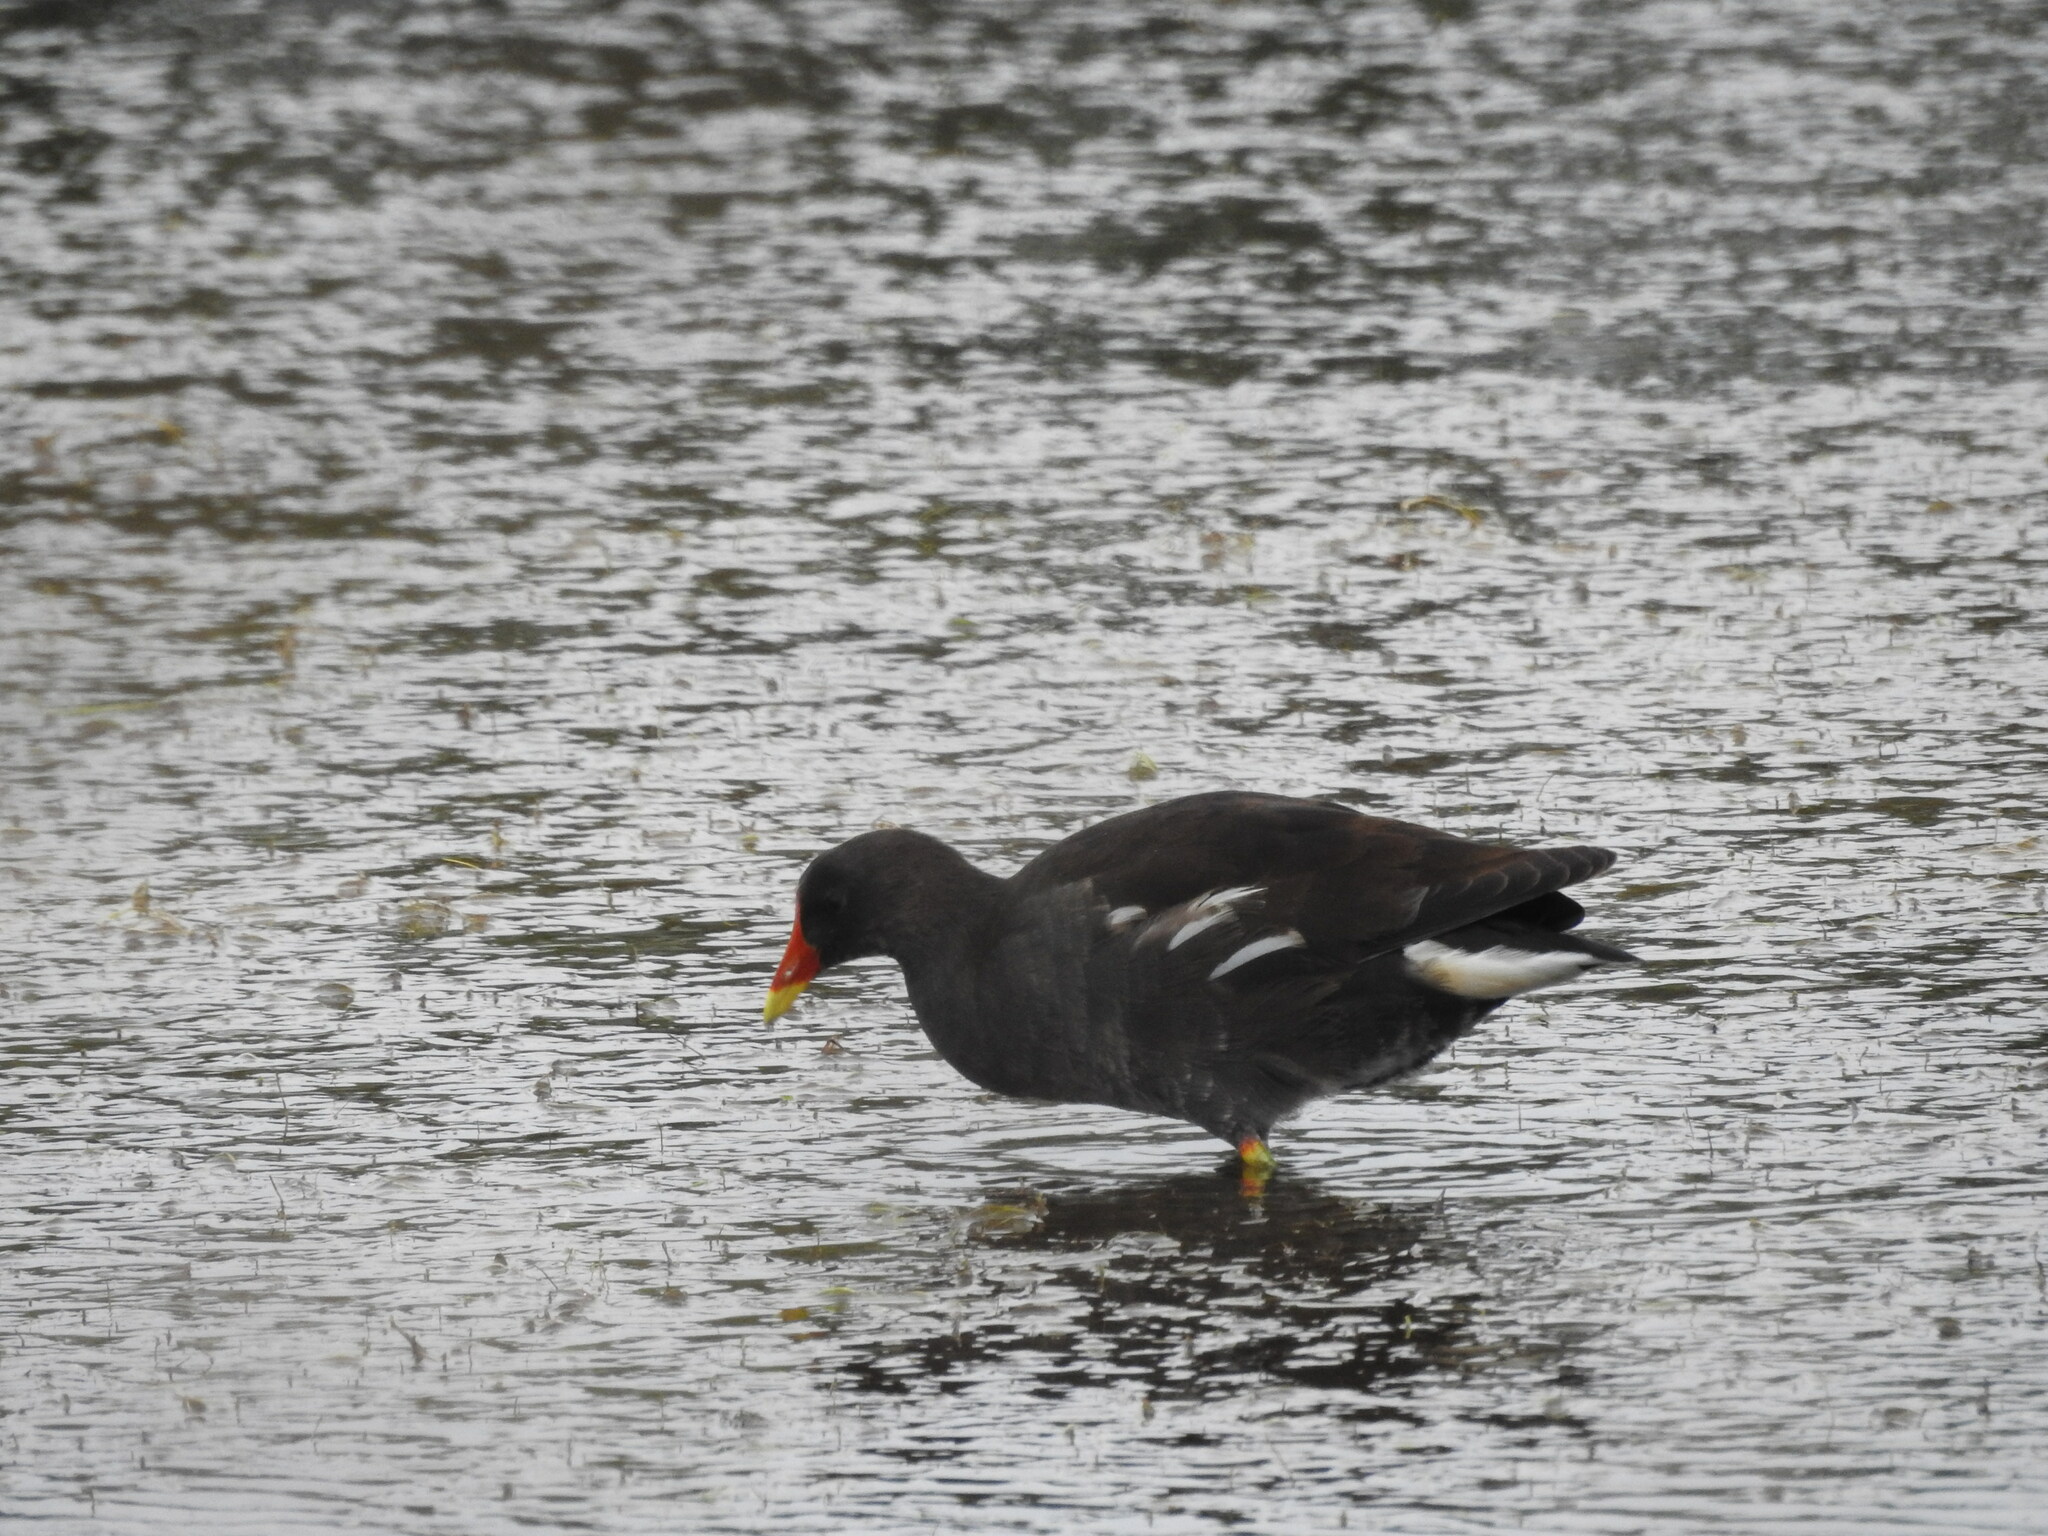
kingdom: Animalia
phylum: Chordata
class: Aves
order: Gruiformes
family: Rallidae
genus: Gallinula
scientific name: Gallinula chloropus
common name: Common moorhen
